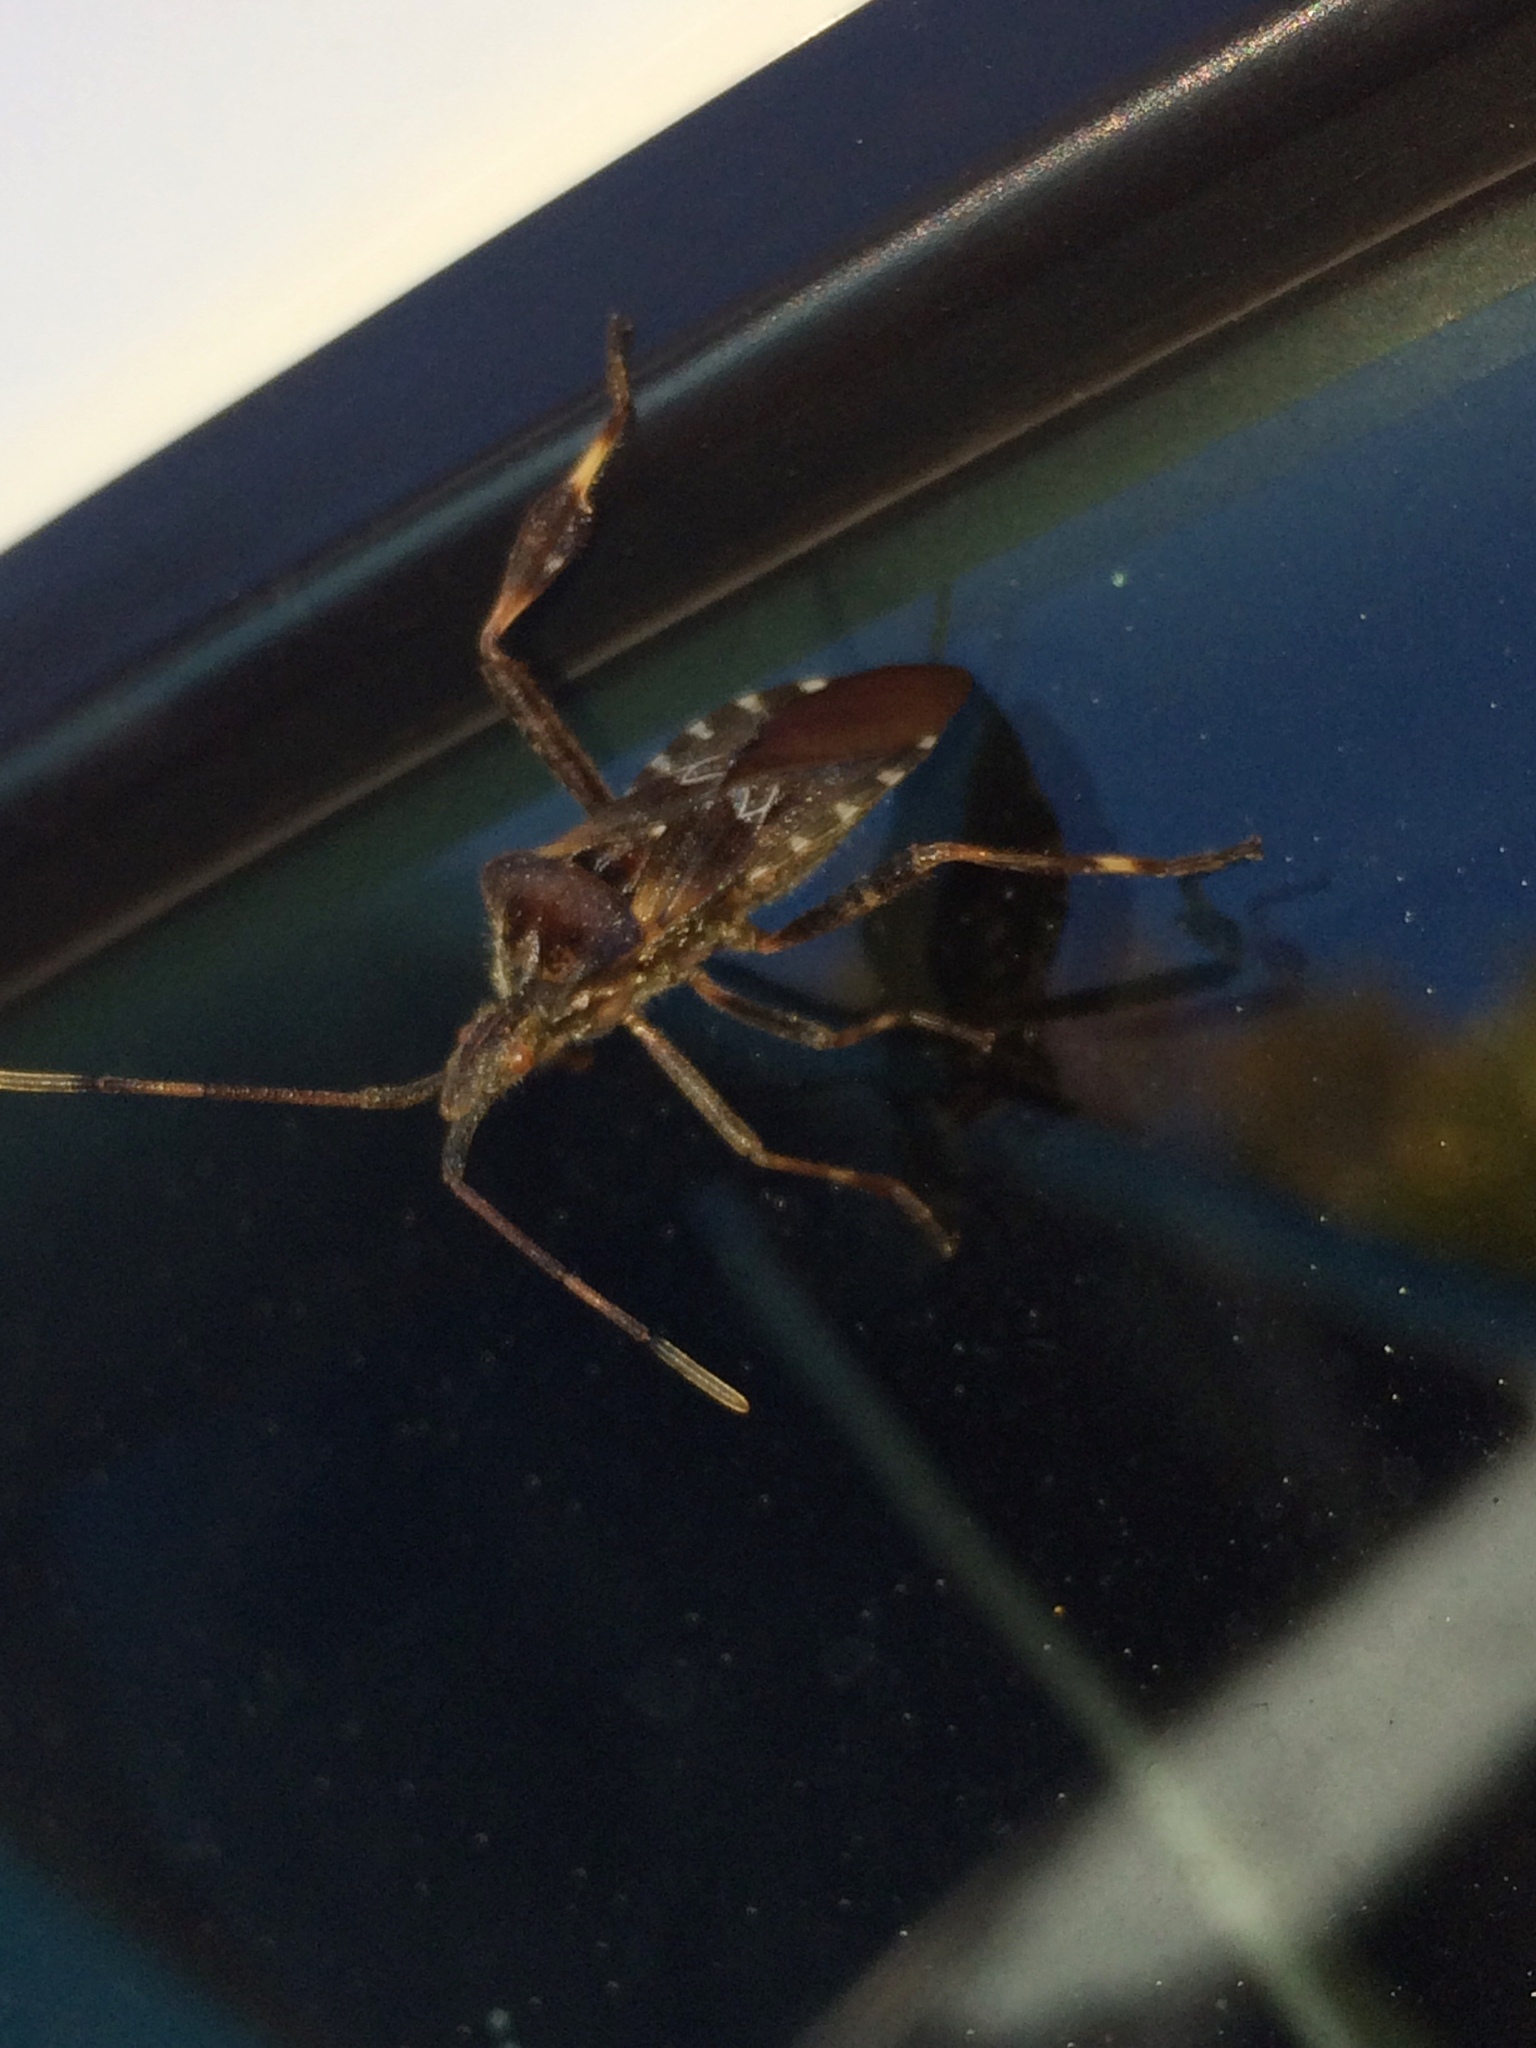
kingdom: Animalia
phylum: Arthropoda
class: Insecta
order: Hemiptera
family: Coreidae
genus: Leptoglossus
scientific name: Leptoglossus occidentalis
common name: Western conifer-seed bug
